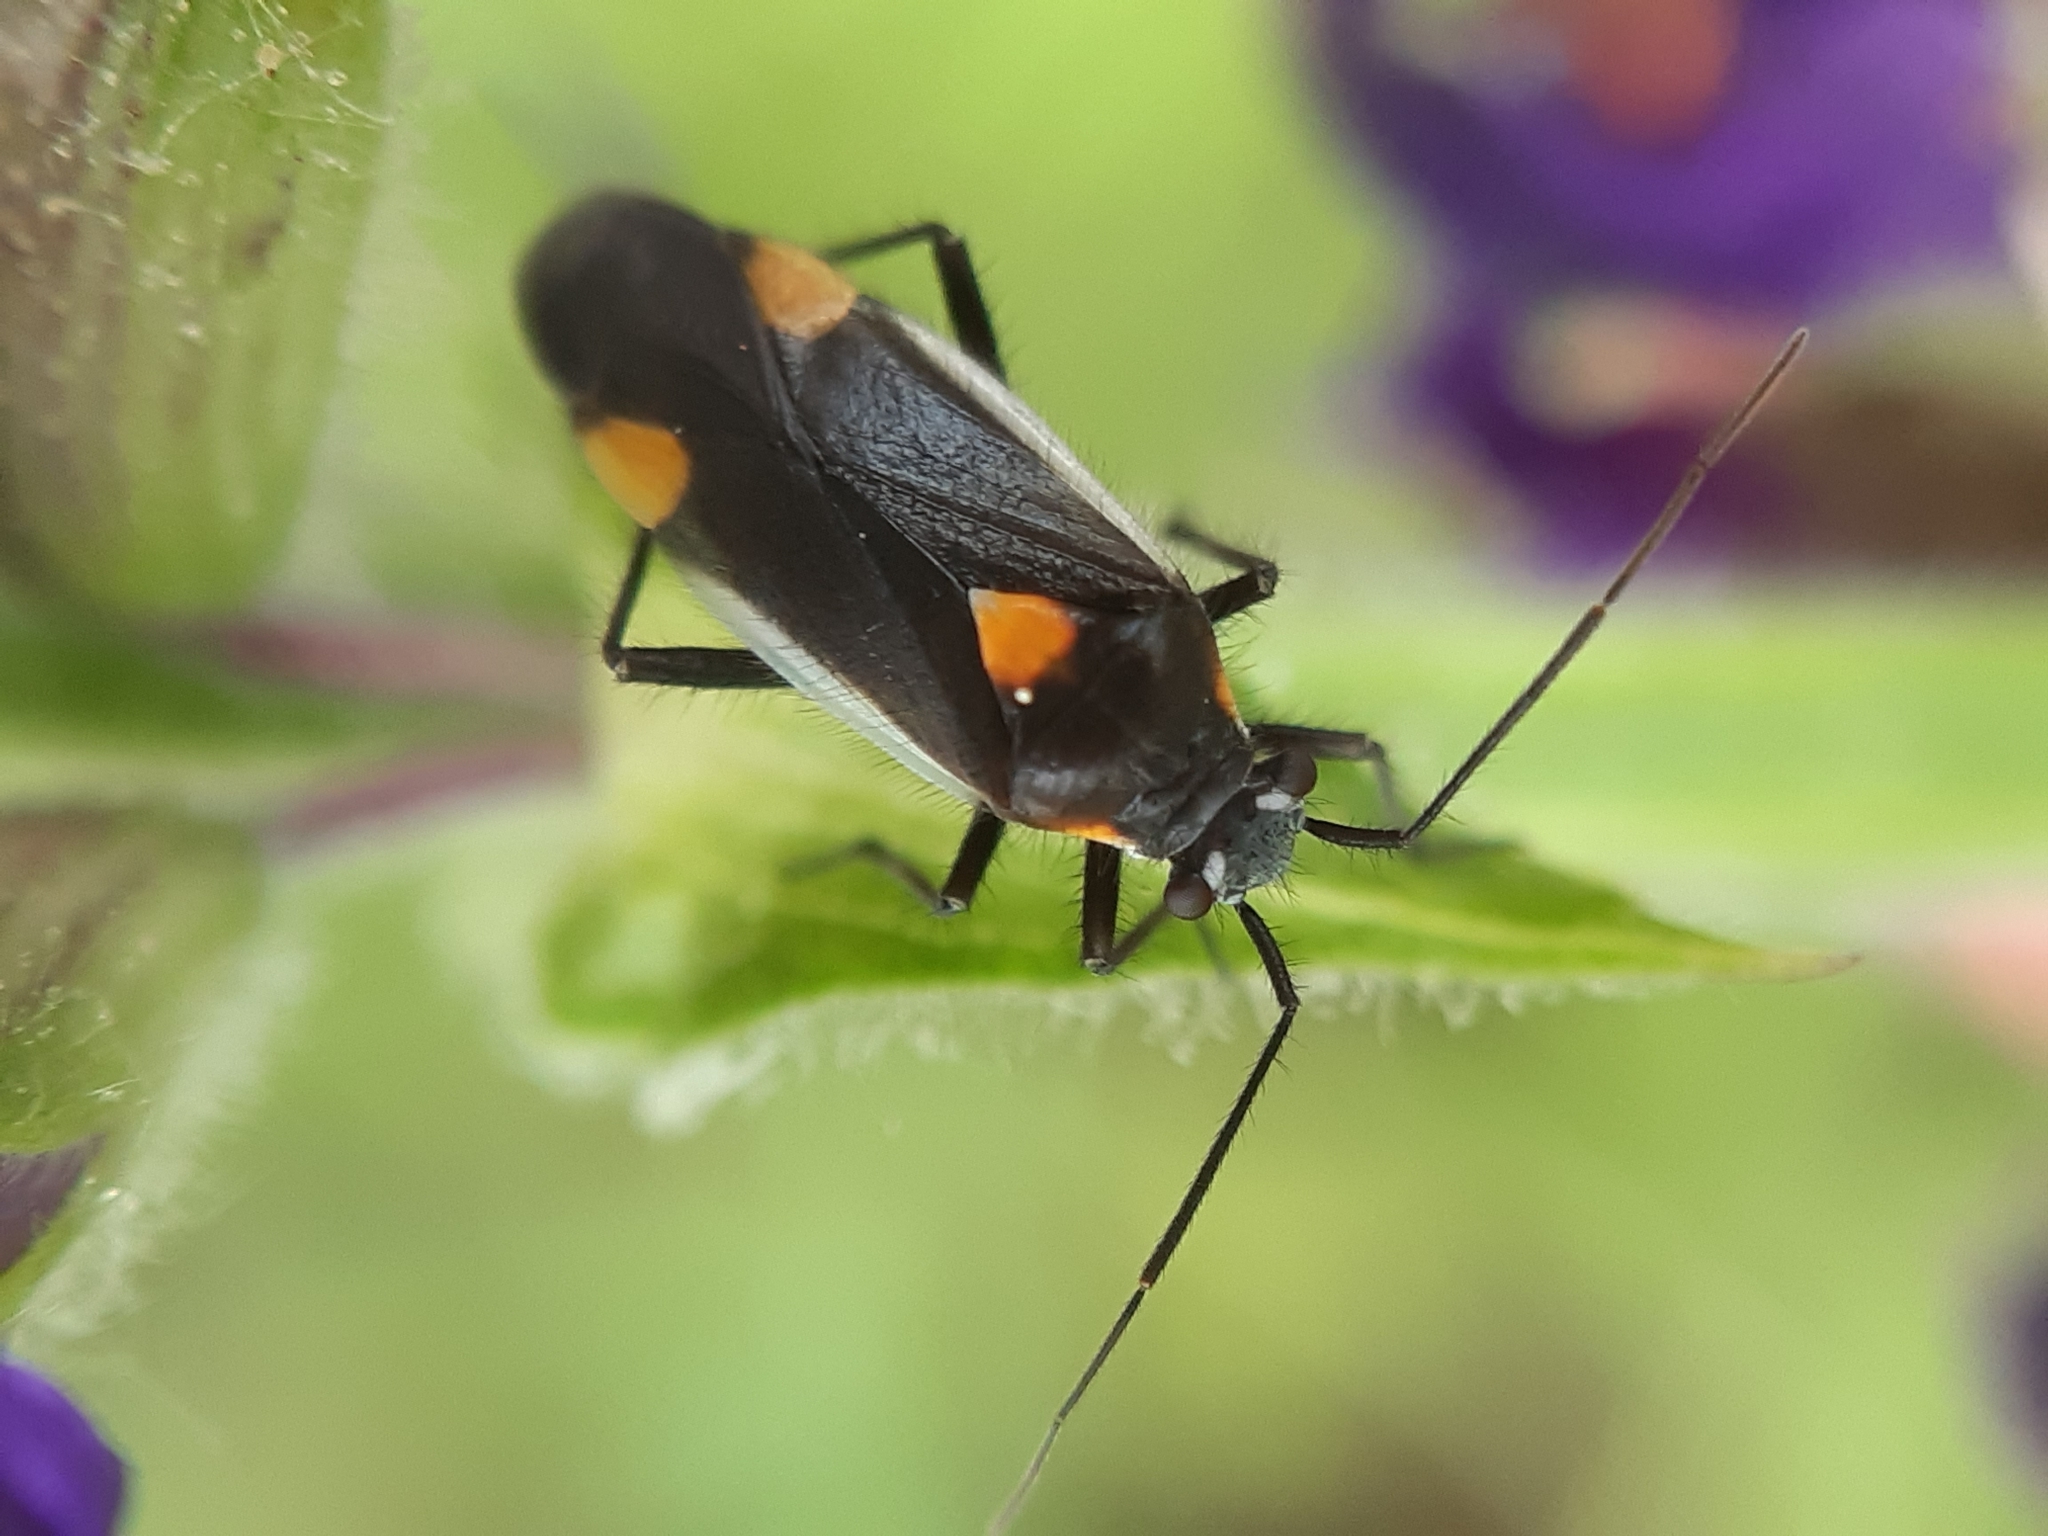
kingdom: Animalia
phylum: Arthropoda
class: Insecta
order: Hemiptera
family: Miridae
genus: Capsodes
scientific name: Capsodes gothicus
